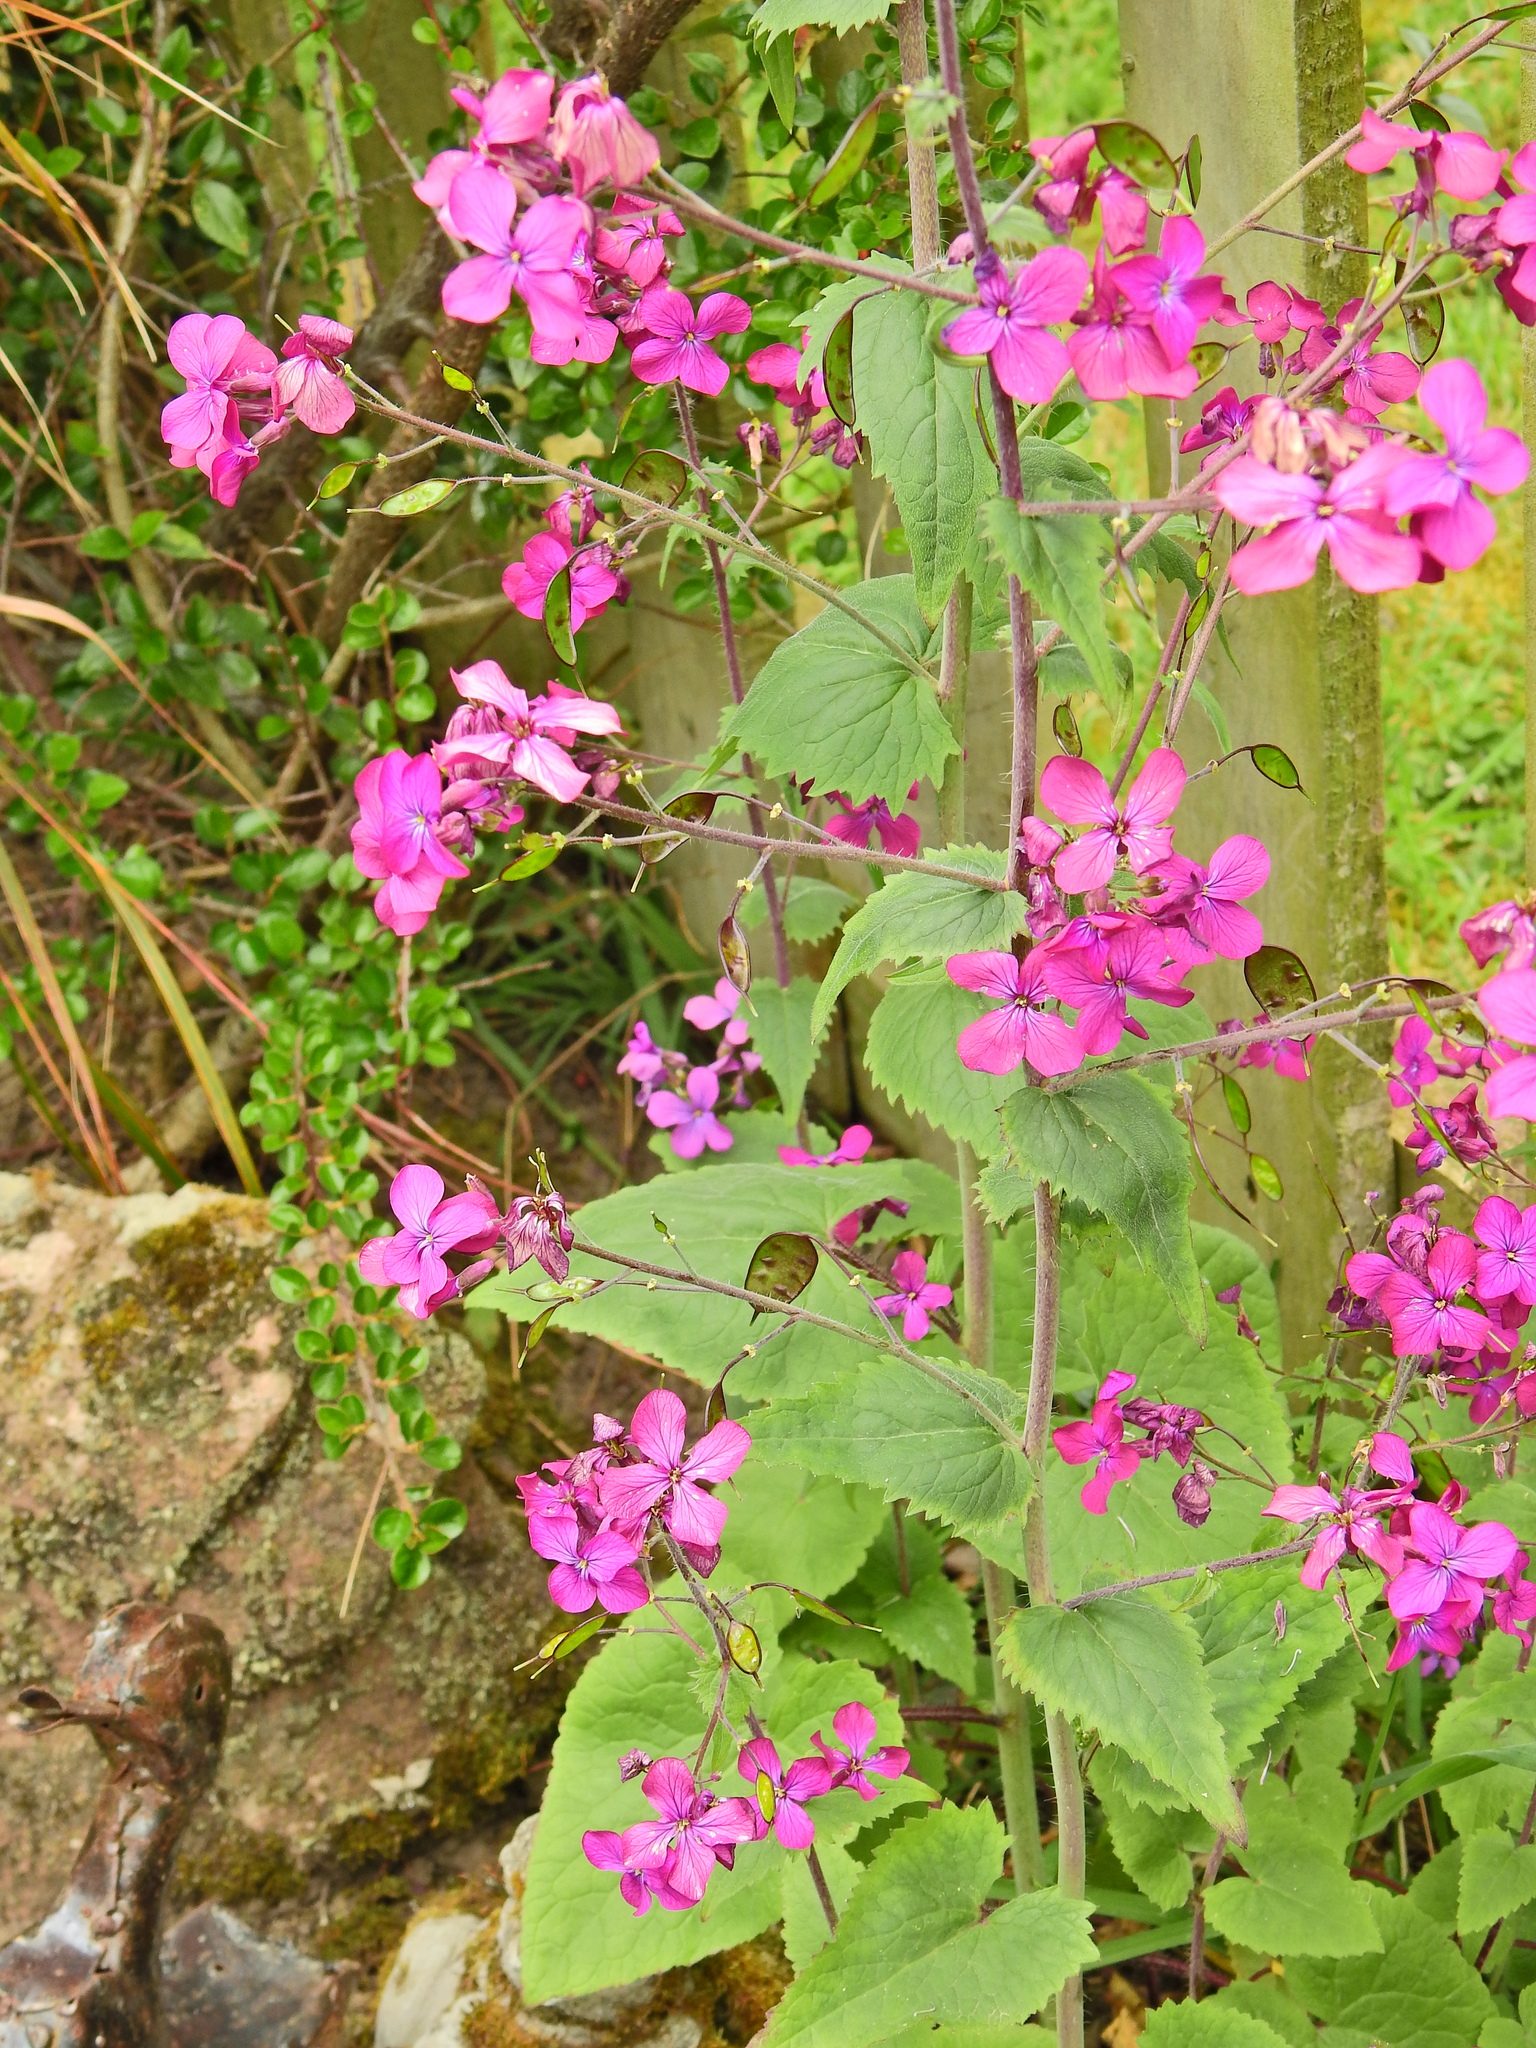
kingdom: Plantae
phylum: Tracheophyta
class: Magnoliopsida
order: Brassicales
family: Brassicaceae
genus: Lunaria
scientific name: Lunaria annua
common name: Honesty
